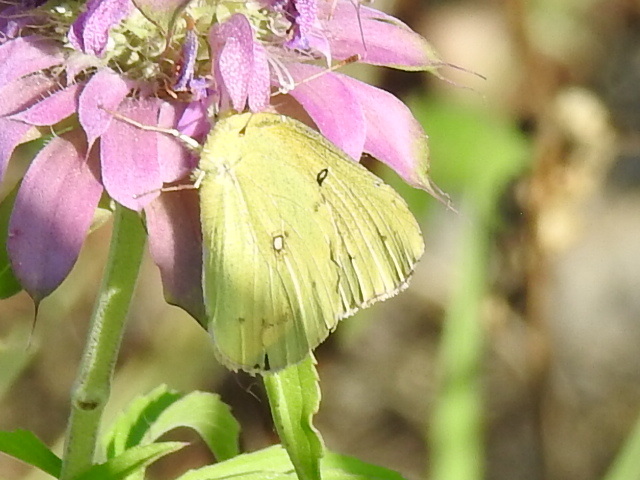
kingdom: Animalia
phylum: Arthropoda
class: Insecta
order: Lepidoptera
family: Pieridae
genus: Colias
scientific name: Colias eurytheme
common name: Alfalfa butterfly
